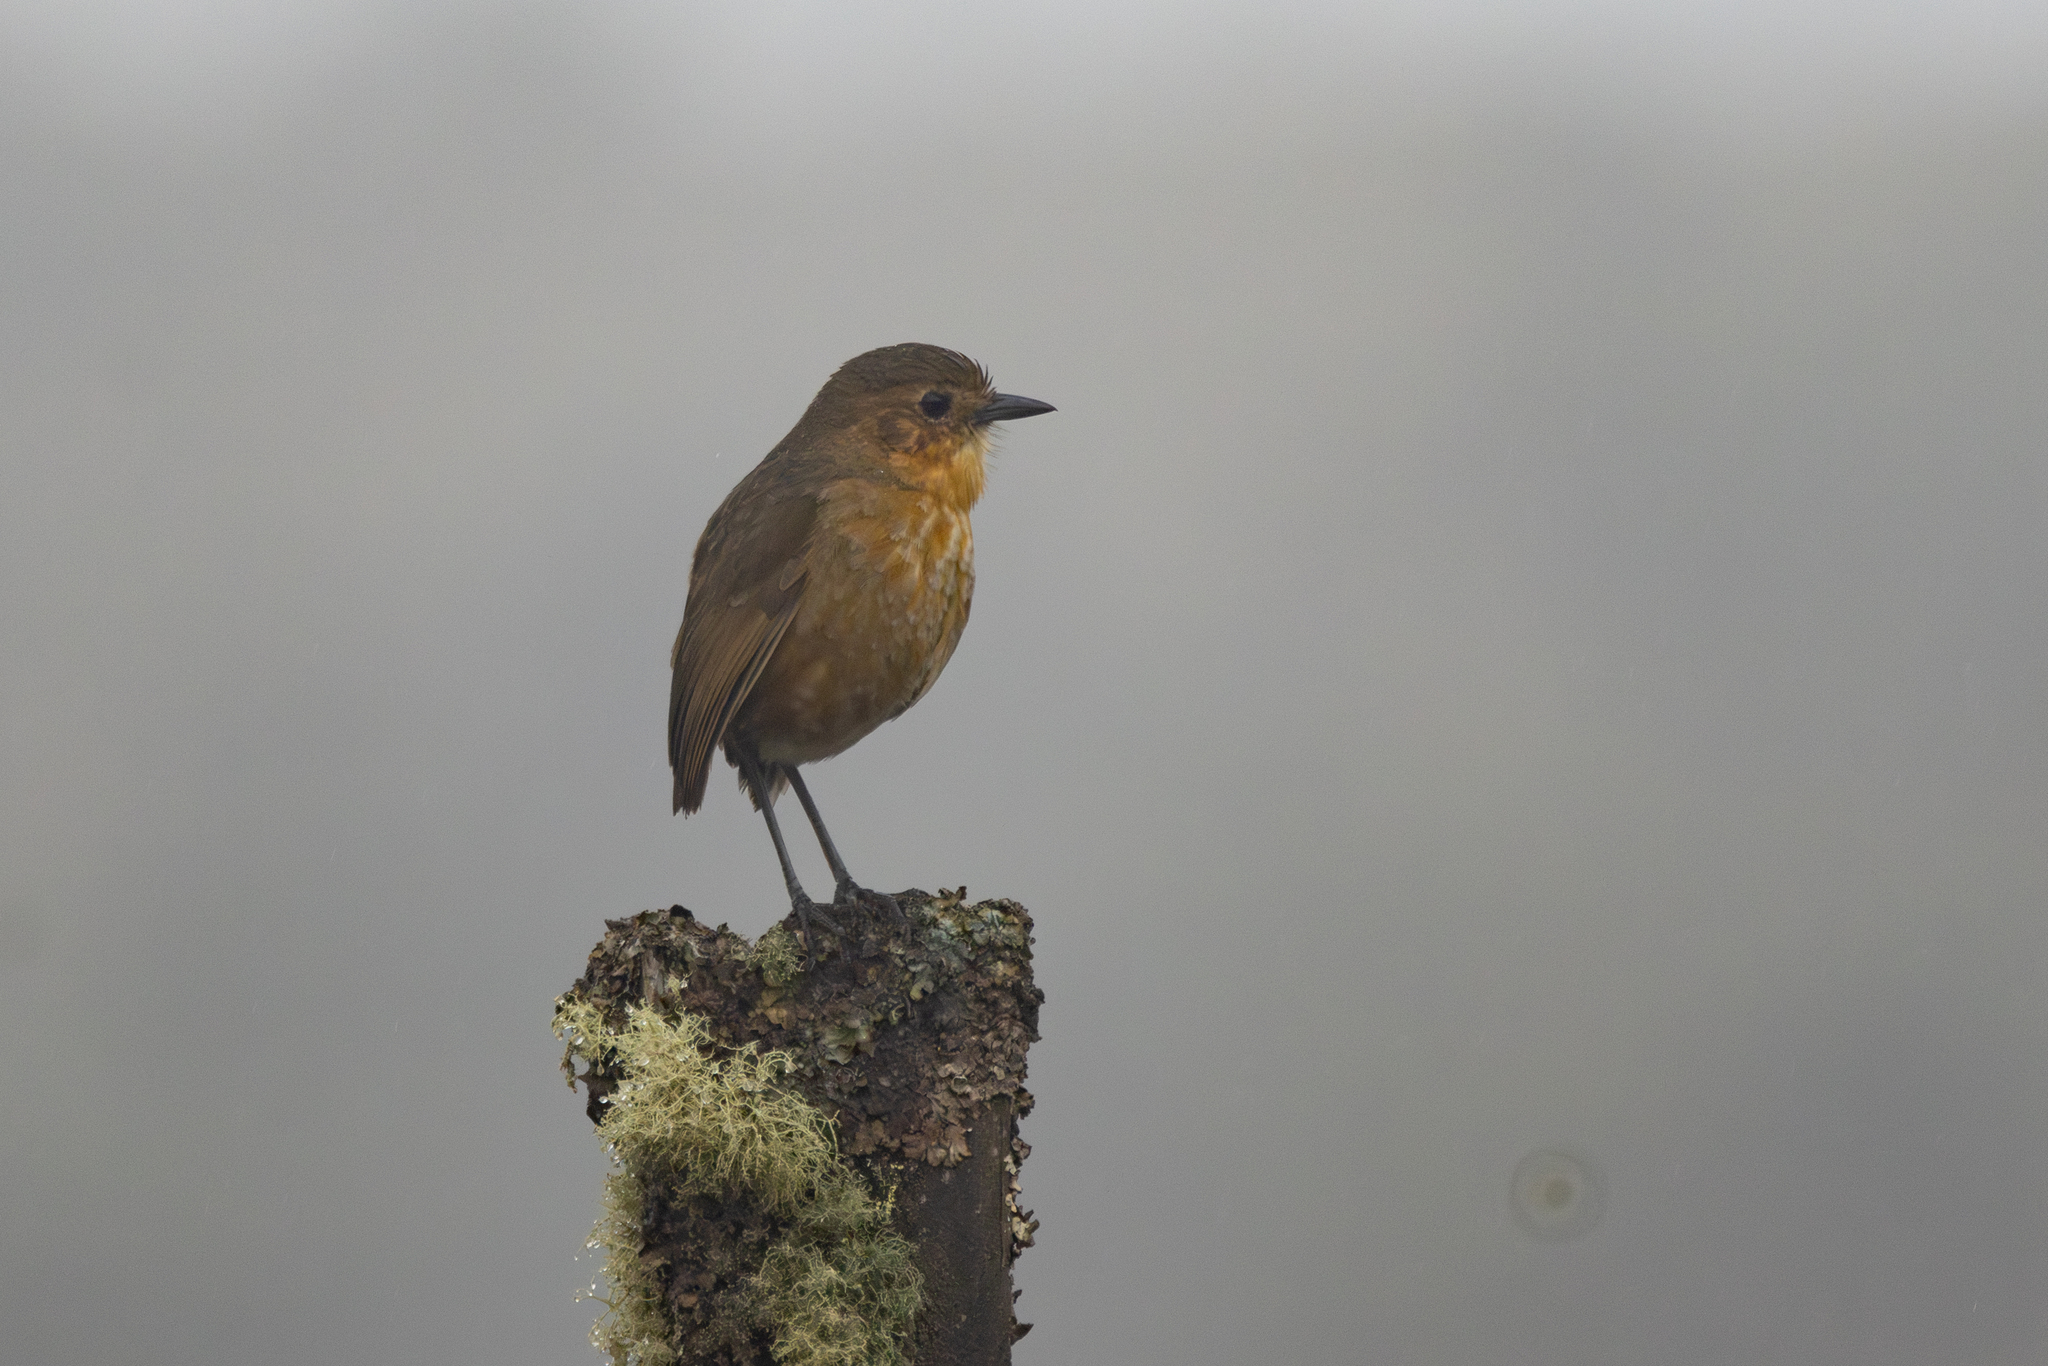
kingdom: Animalia
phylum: Chordata
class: Aves
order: Passeriformes
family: Grallariidae
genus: Grallaria
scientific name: Grallaria alticola
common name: Boyaca antpitta
